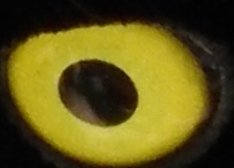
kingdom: Animalia
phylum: Chordata
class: Aves
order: Passeriformes
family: Corvidae
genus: Cyanocorax
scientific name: Cyanocorax beecheii
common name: Purplish-backed jay
